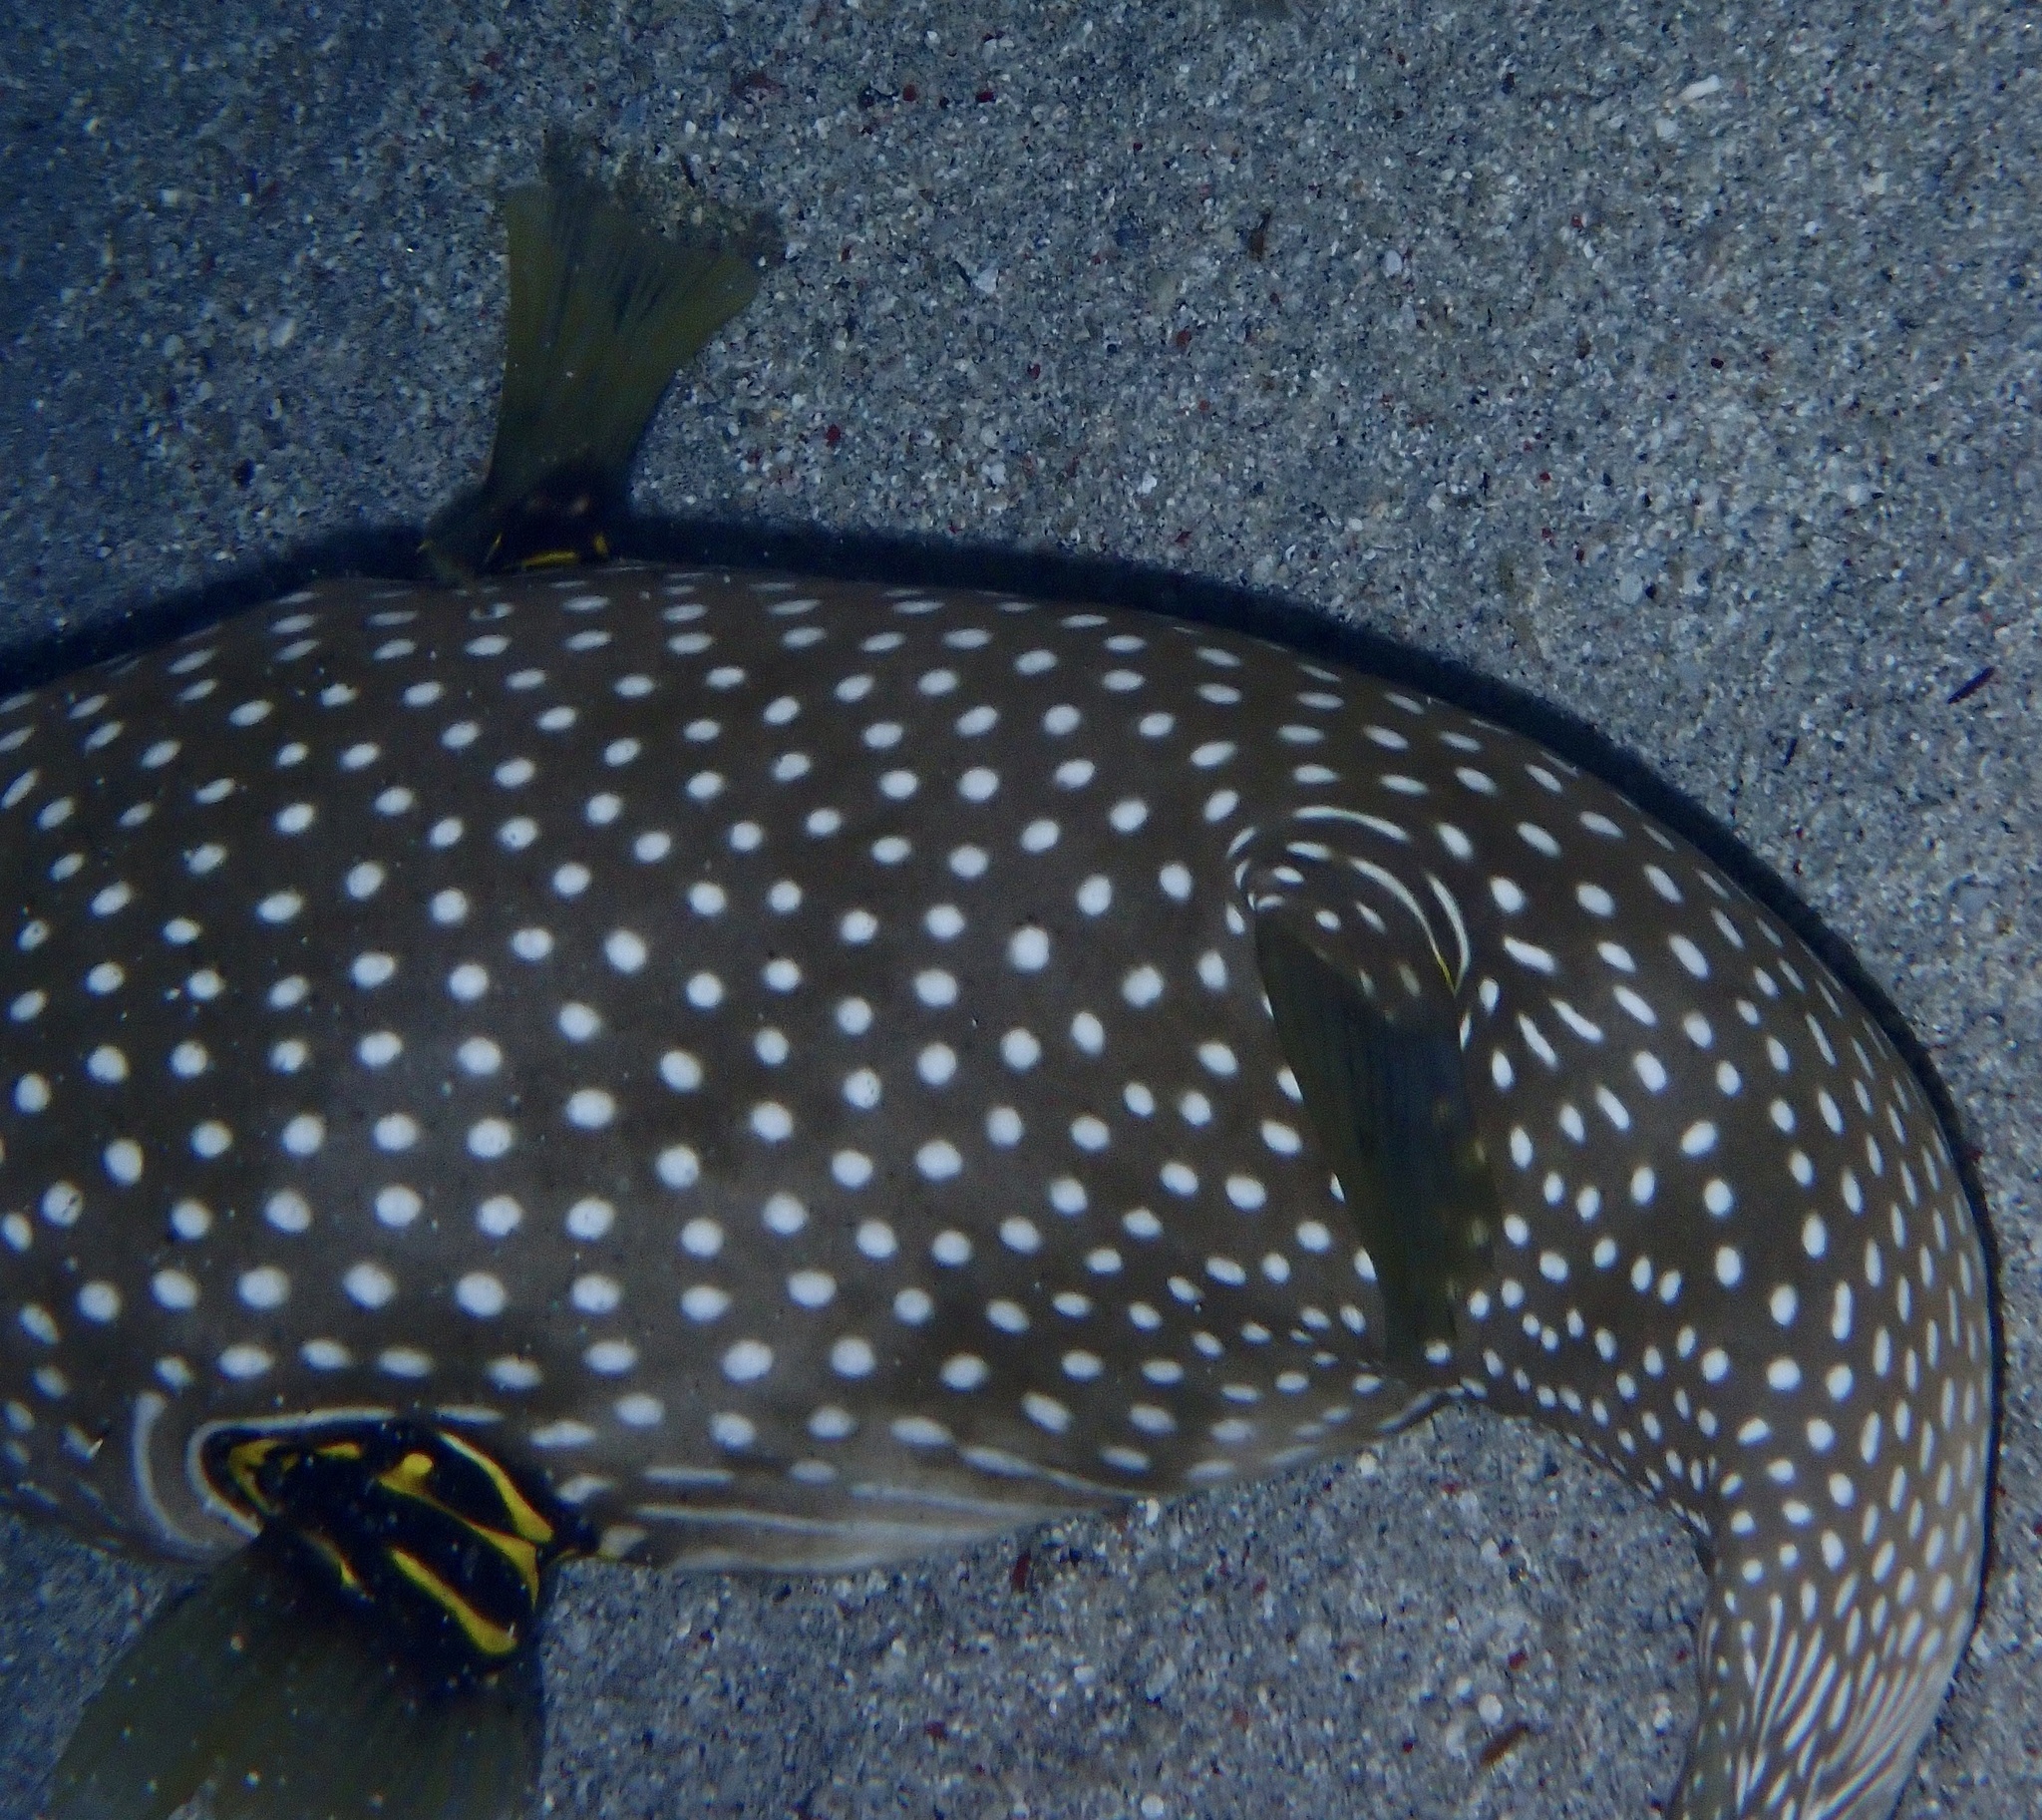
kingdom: Animalia
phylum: Chordata
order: Tetraodontiformes
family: Tetraodontidae
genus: Arothron
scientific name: Arothron hispidus
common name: Stripebelly puffer
